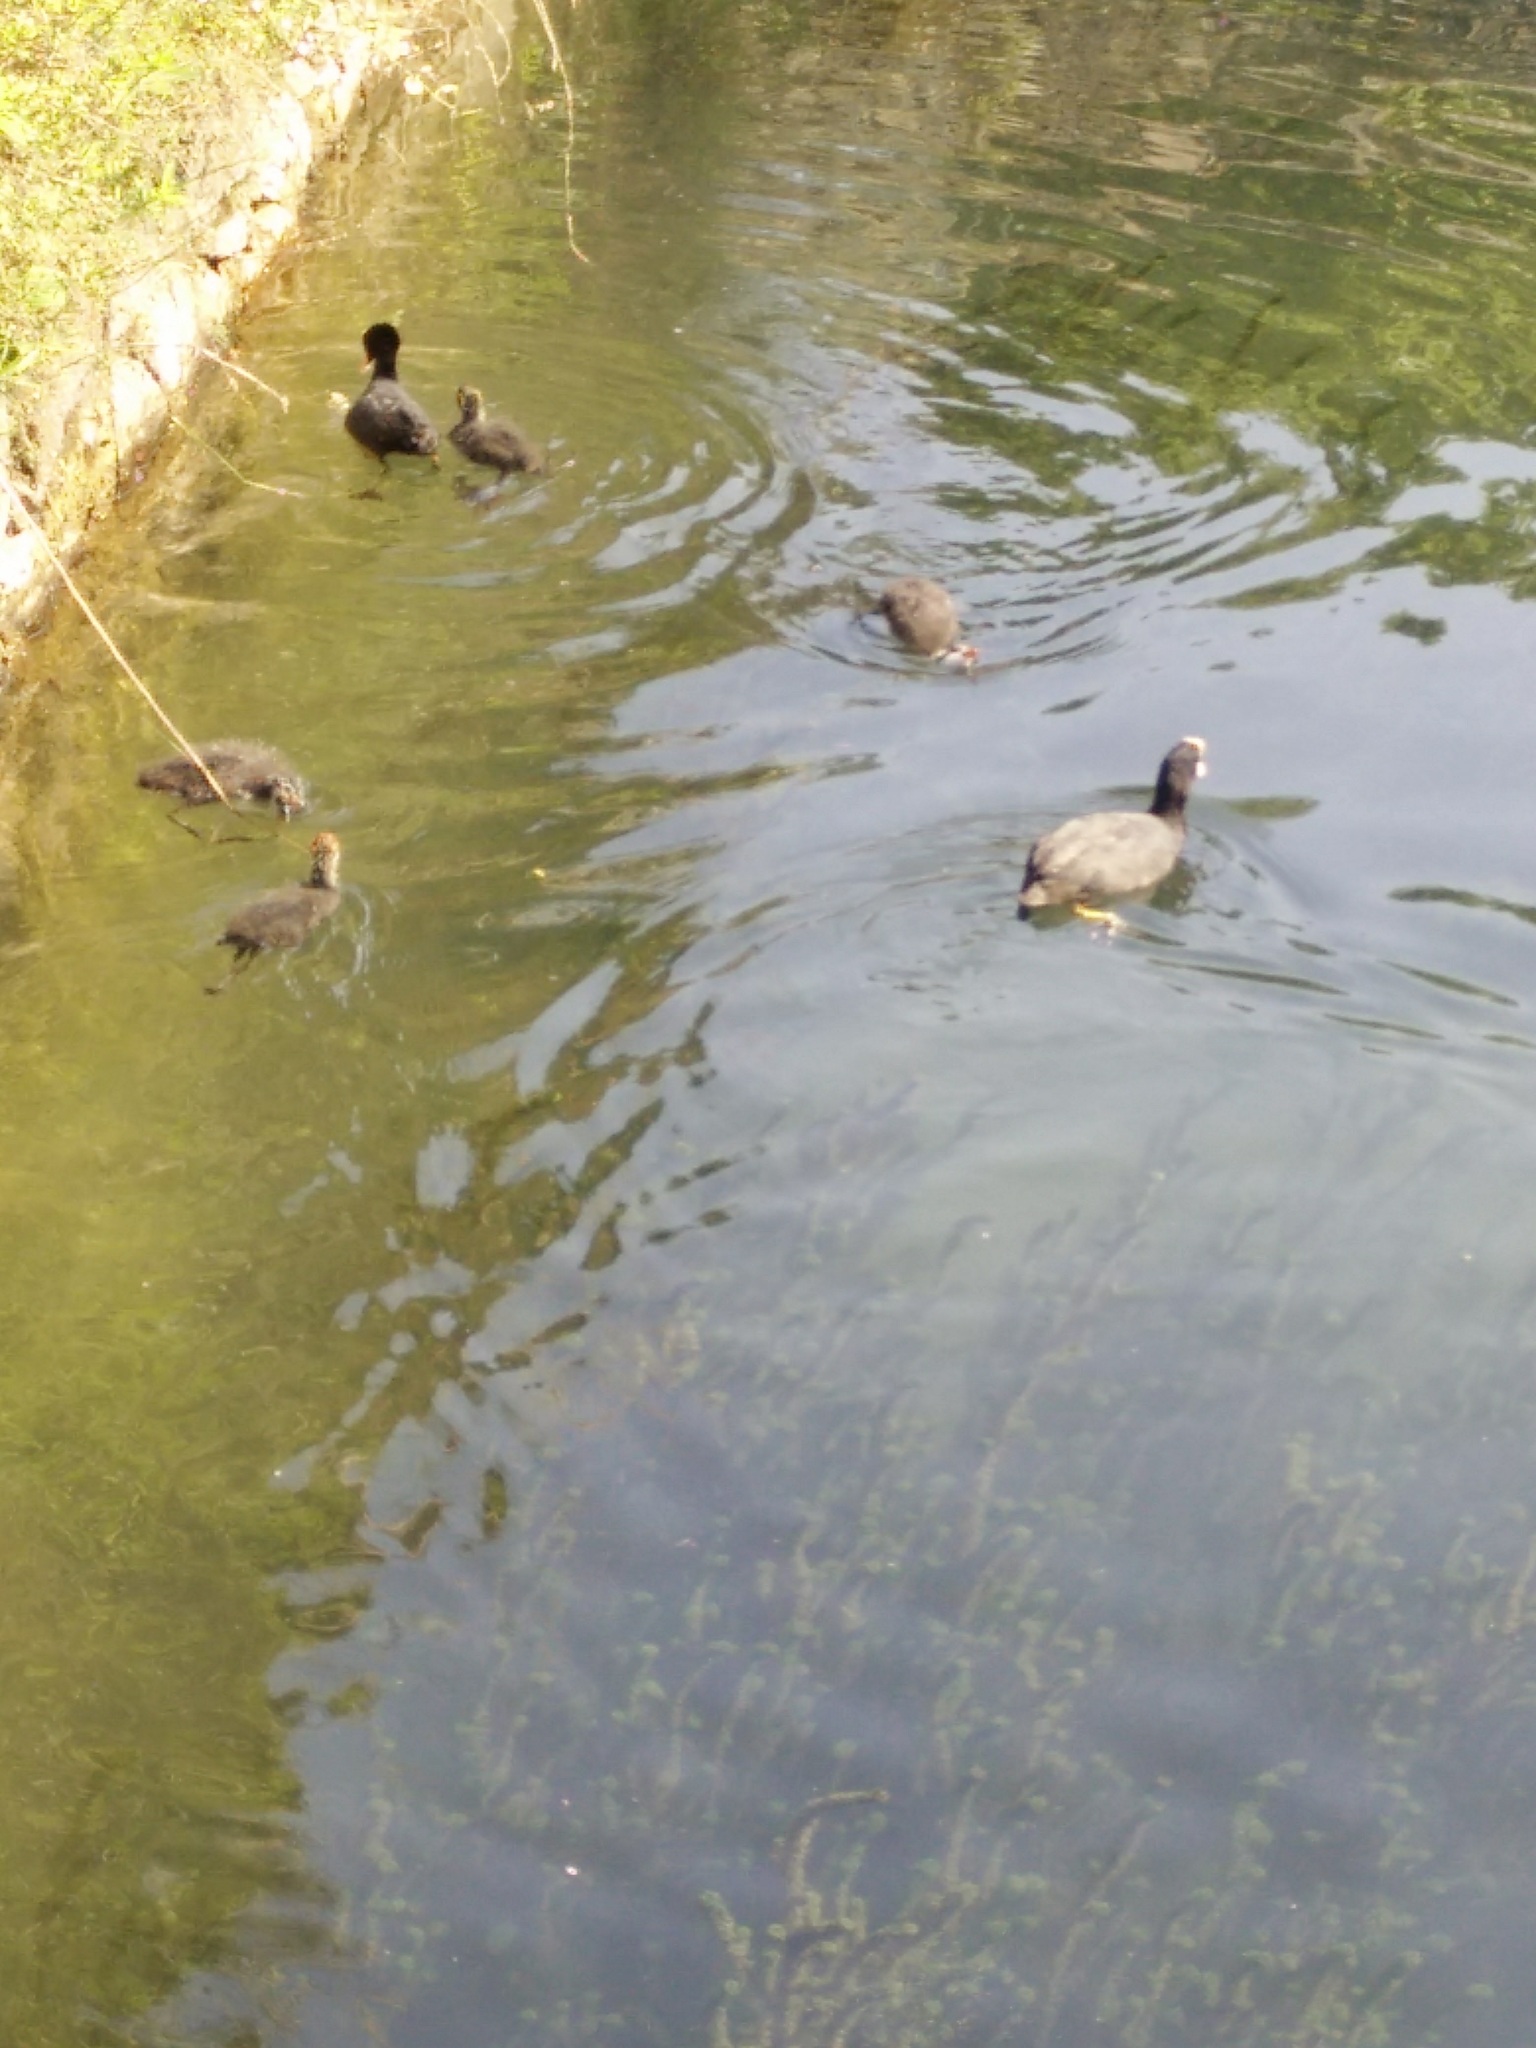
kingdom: Animalia
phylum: Chordata
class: Aves
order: Gruiformes
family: Rallidae
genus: Fulica
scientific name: Fulica atra
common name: Eurasian coot
